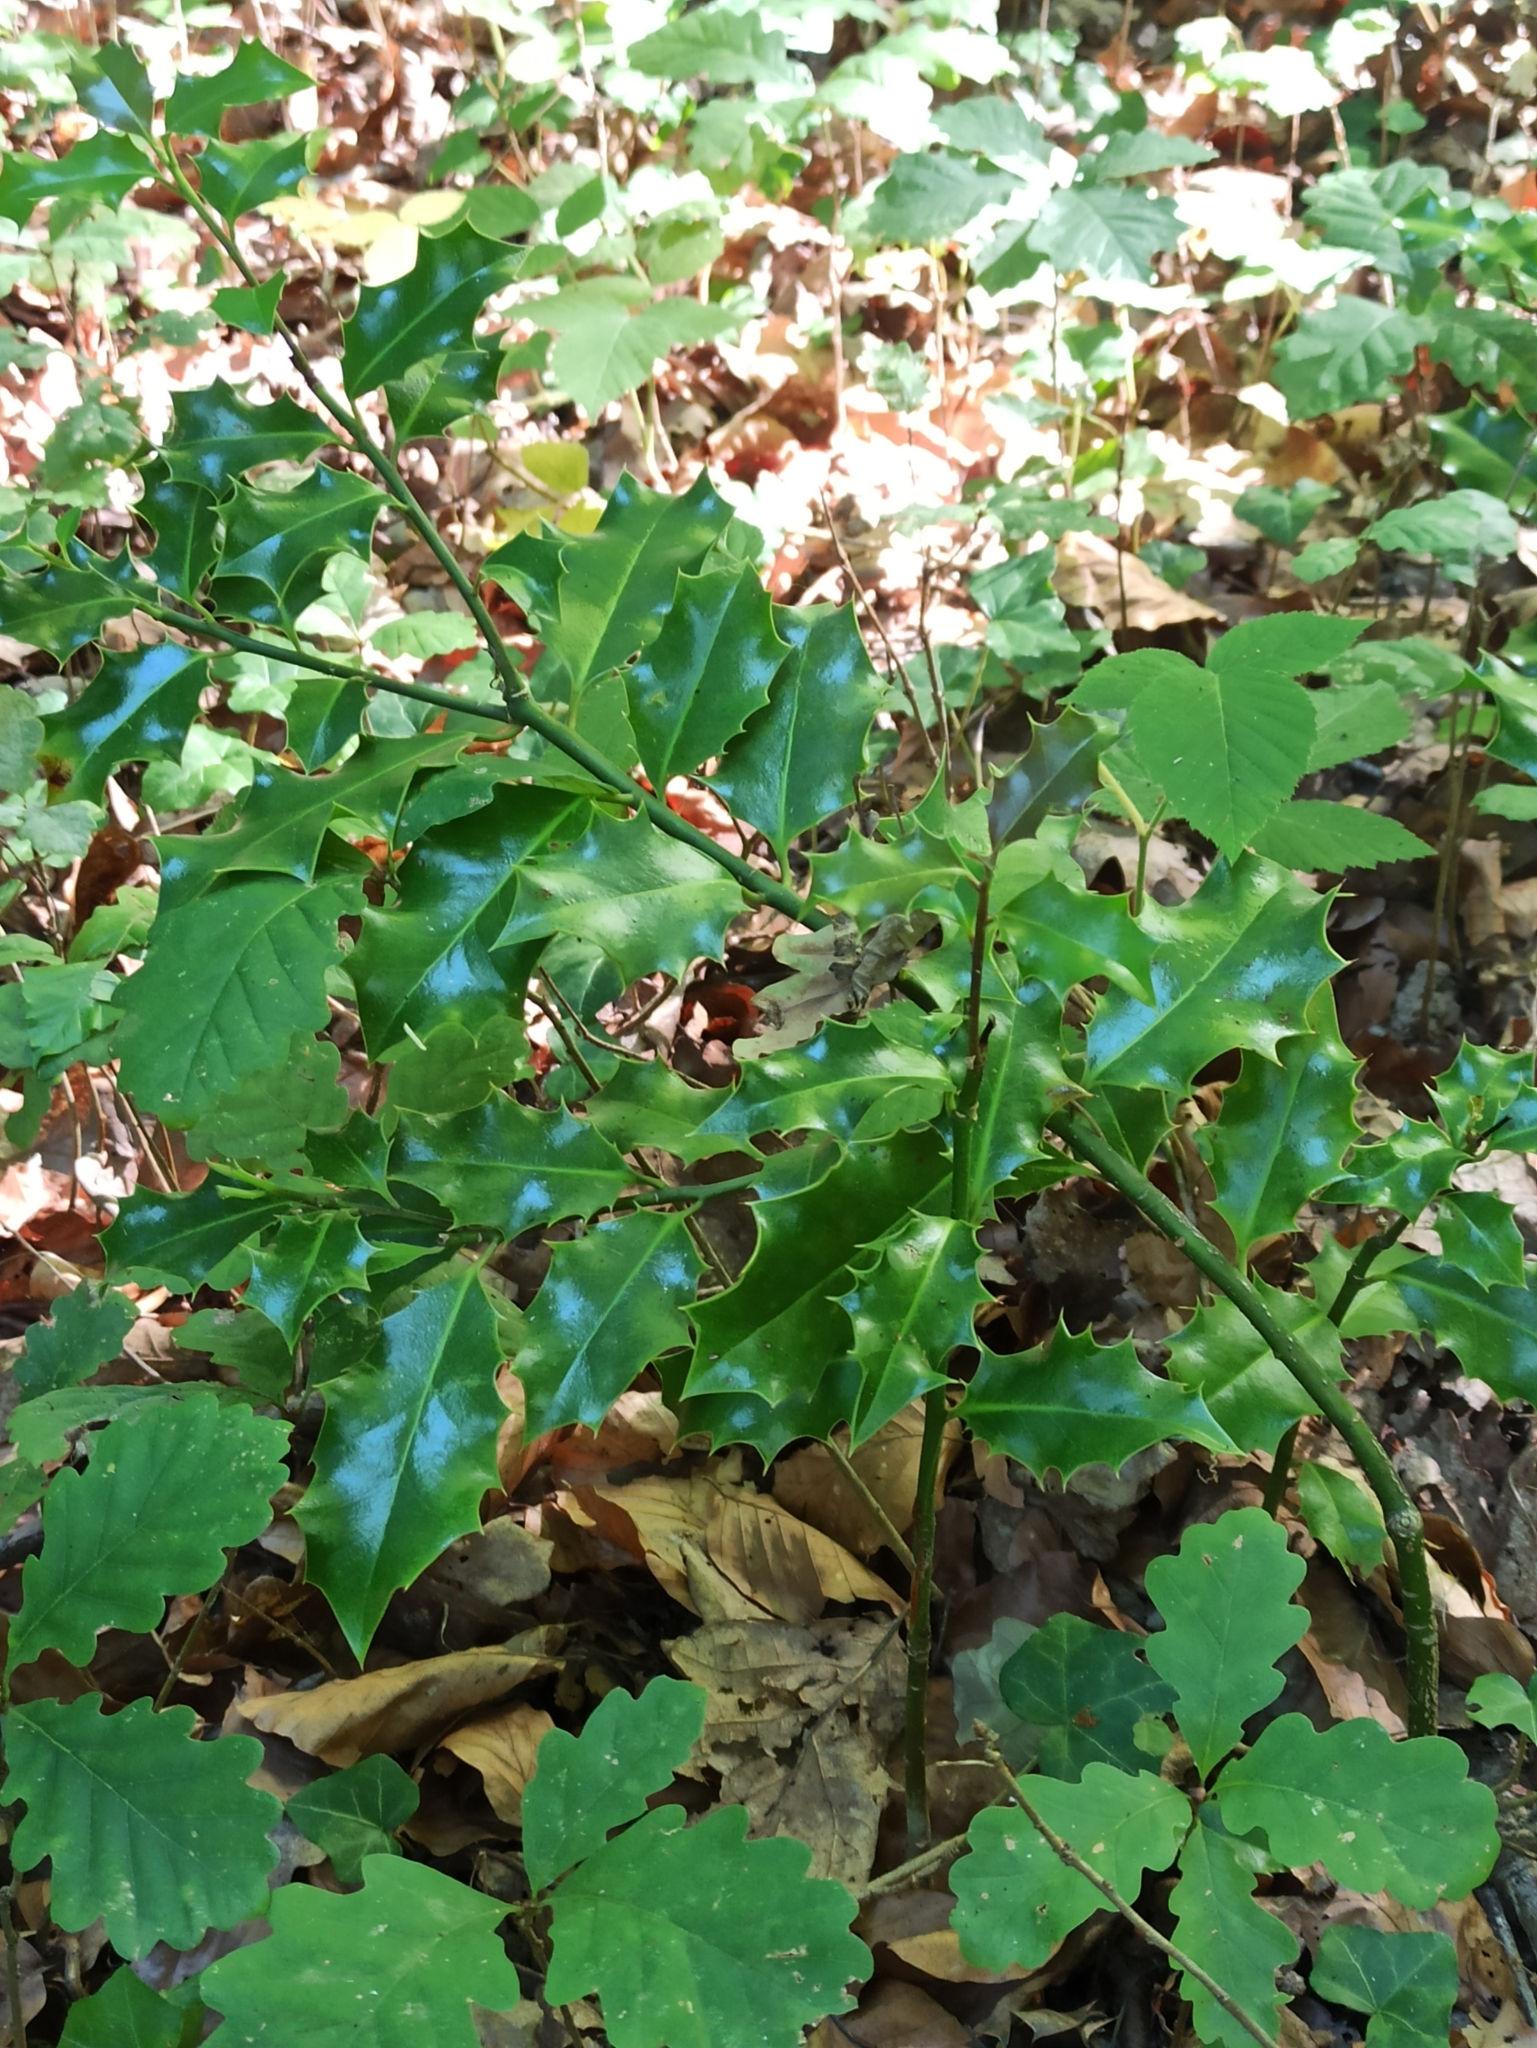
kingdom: Plantae
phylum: Tracheophyta
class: Magnoliopsida
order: Aquifoliales
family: Aquifoliaceae
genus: Ilex
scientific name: Ilex aquifolium
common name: English holly
